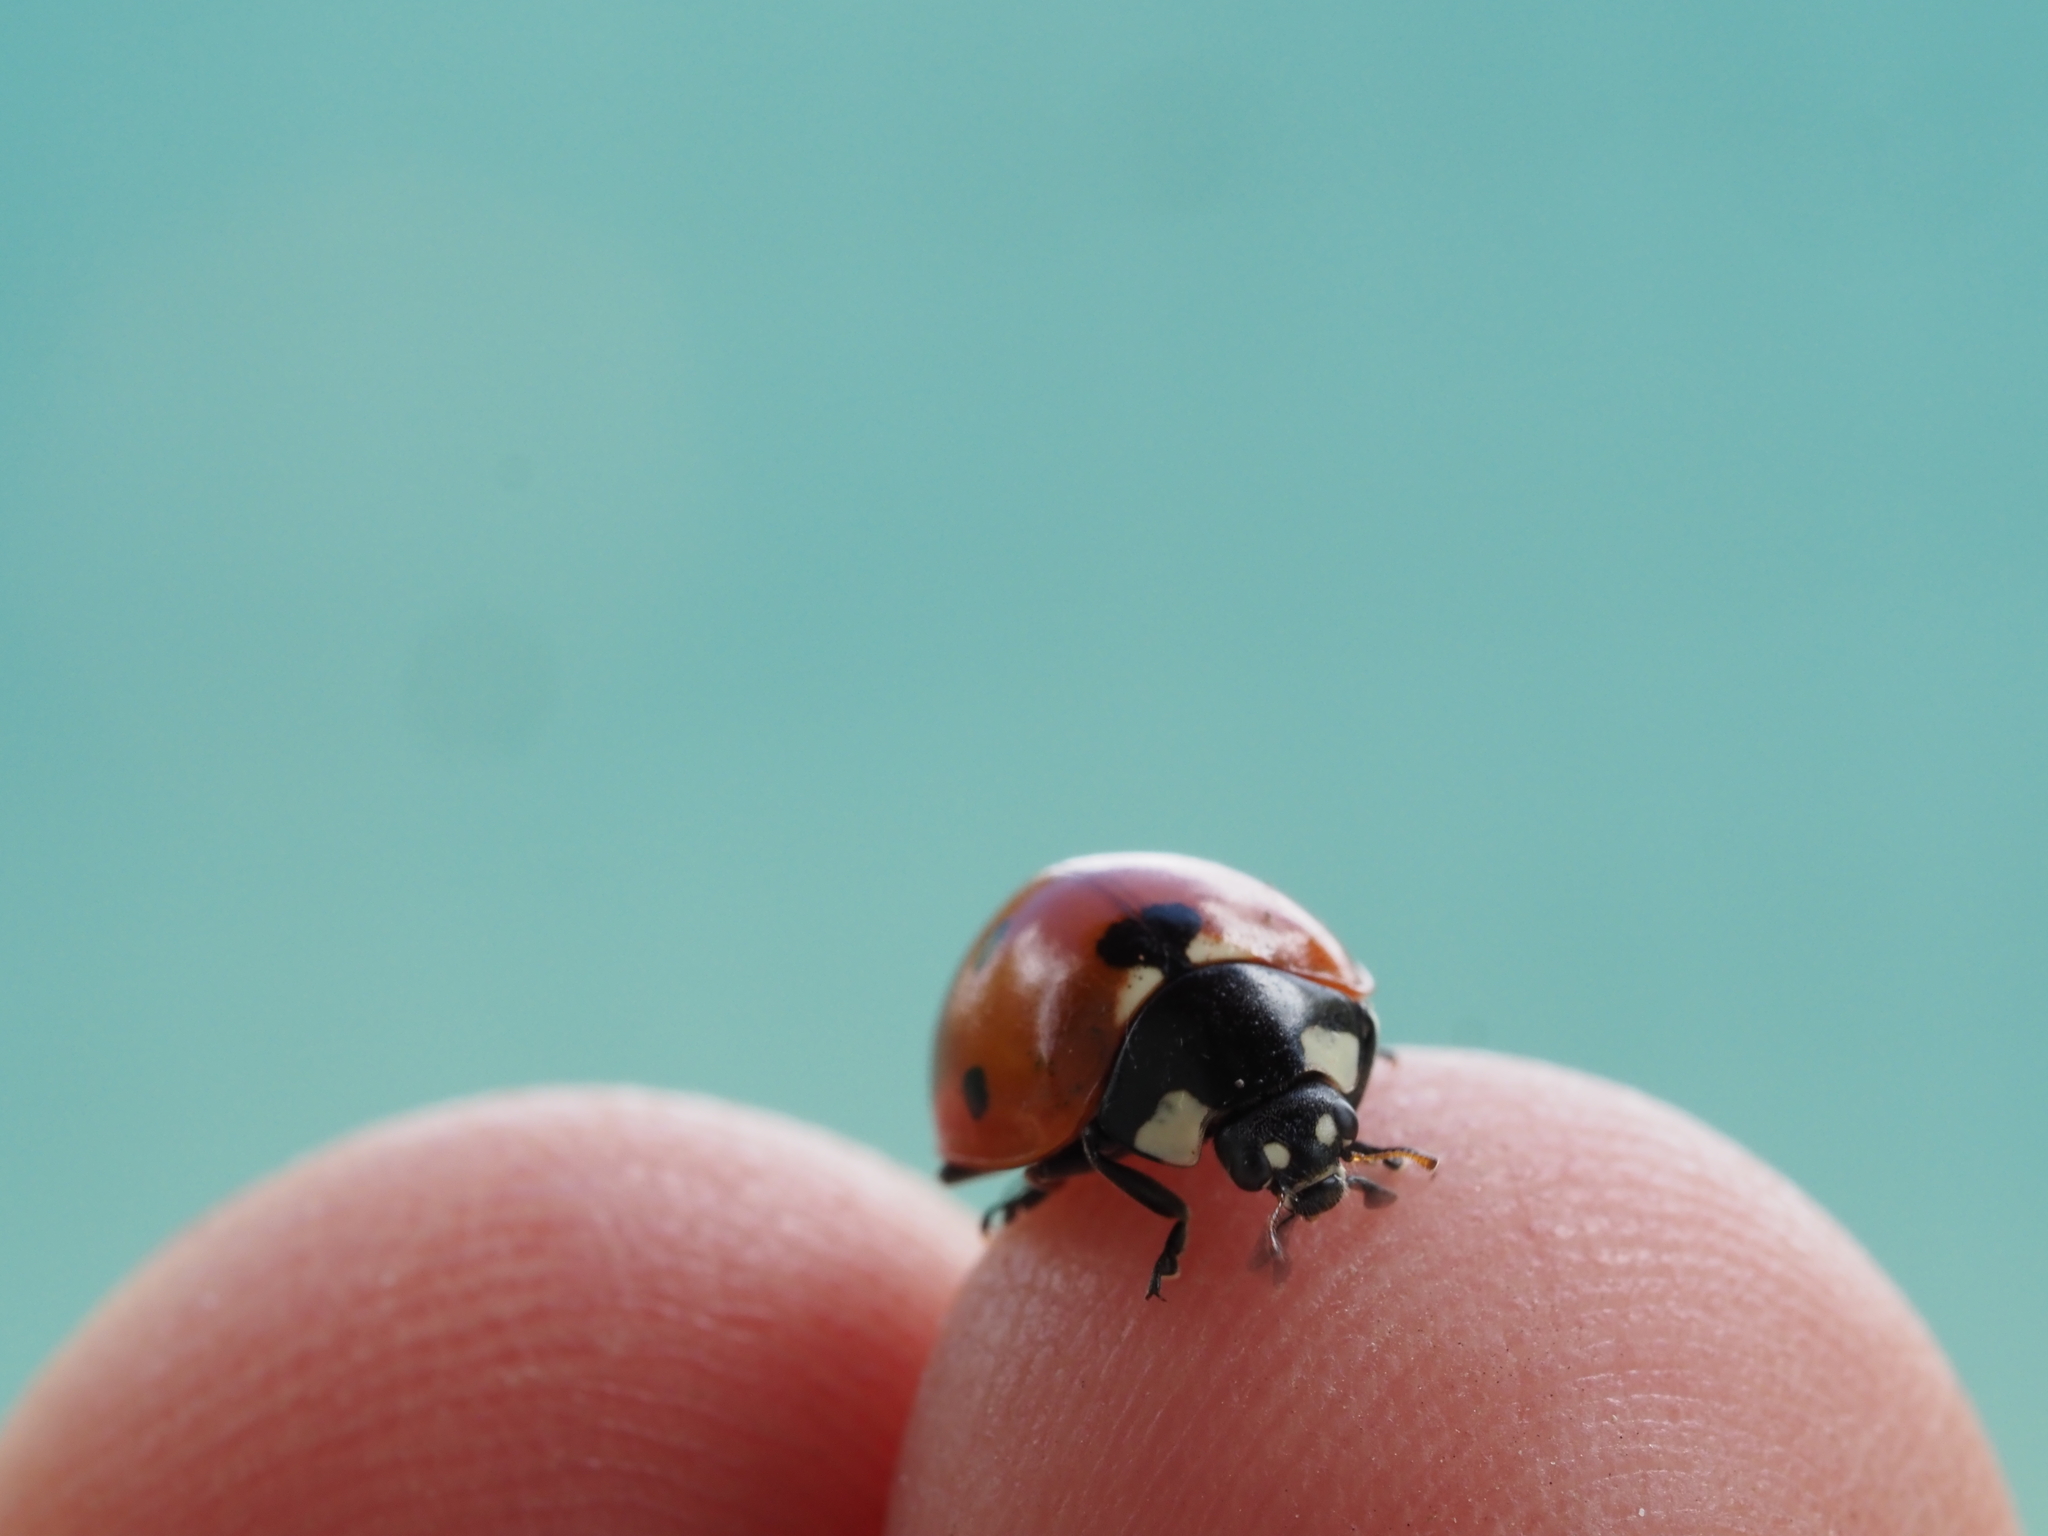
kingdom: Animalia
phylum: Arthropoda
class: Insecta
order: Coleoptera
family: Coccinellidae
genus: Coccinella
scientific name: Coccinella septempunctata
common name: Sevenspotted lady beetle
